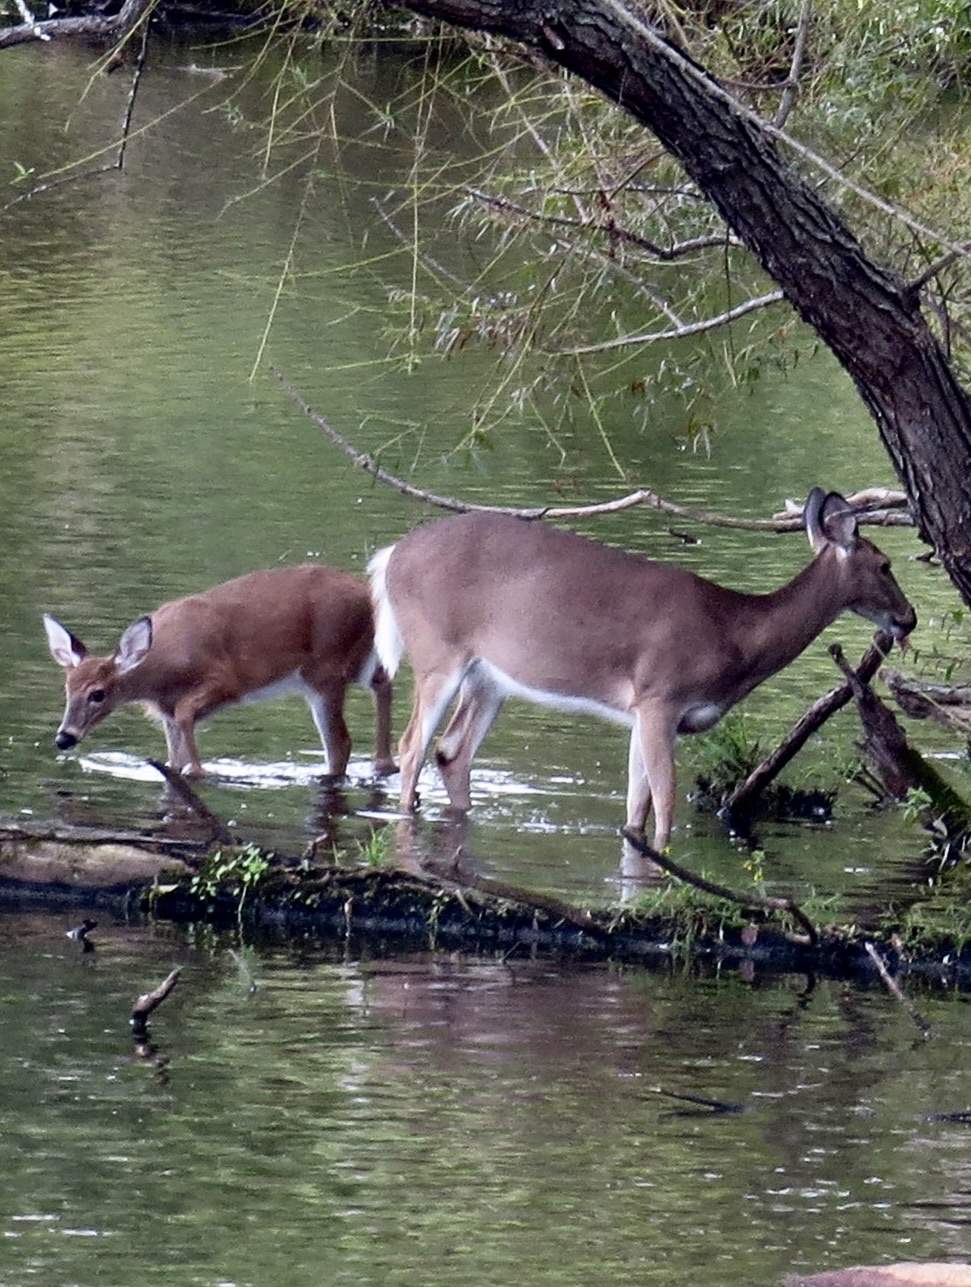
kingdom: Animalia
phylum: Chordata
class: Mammalia
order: Artiodactyla
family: Cervidae
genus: Odocoileus
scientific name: Odocoileus virginianus
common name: White-tailed deer
